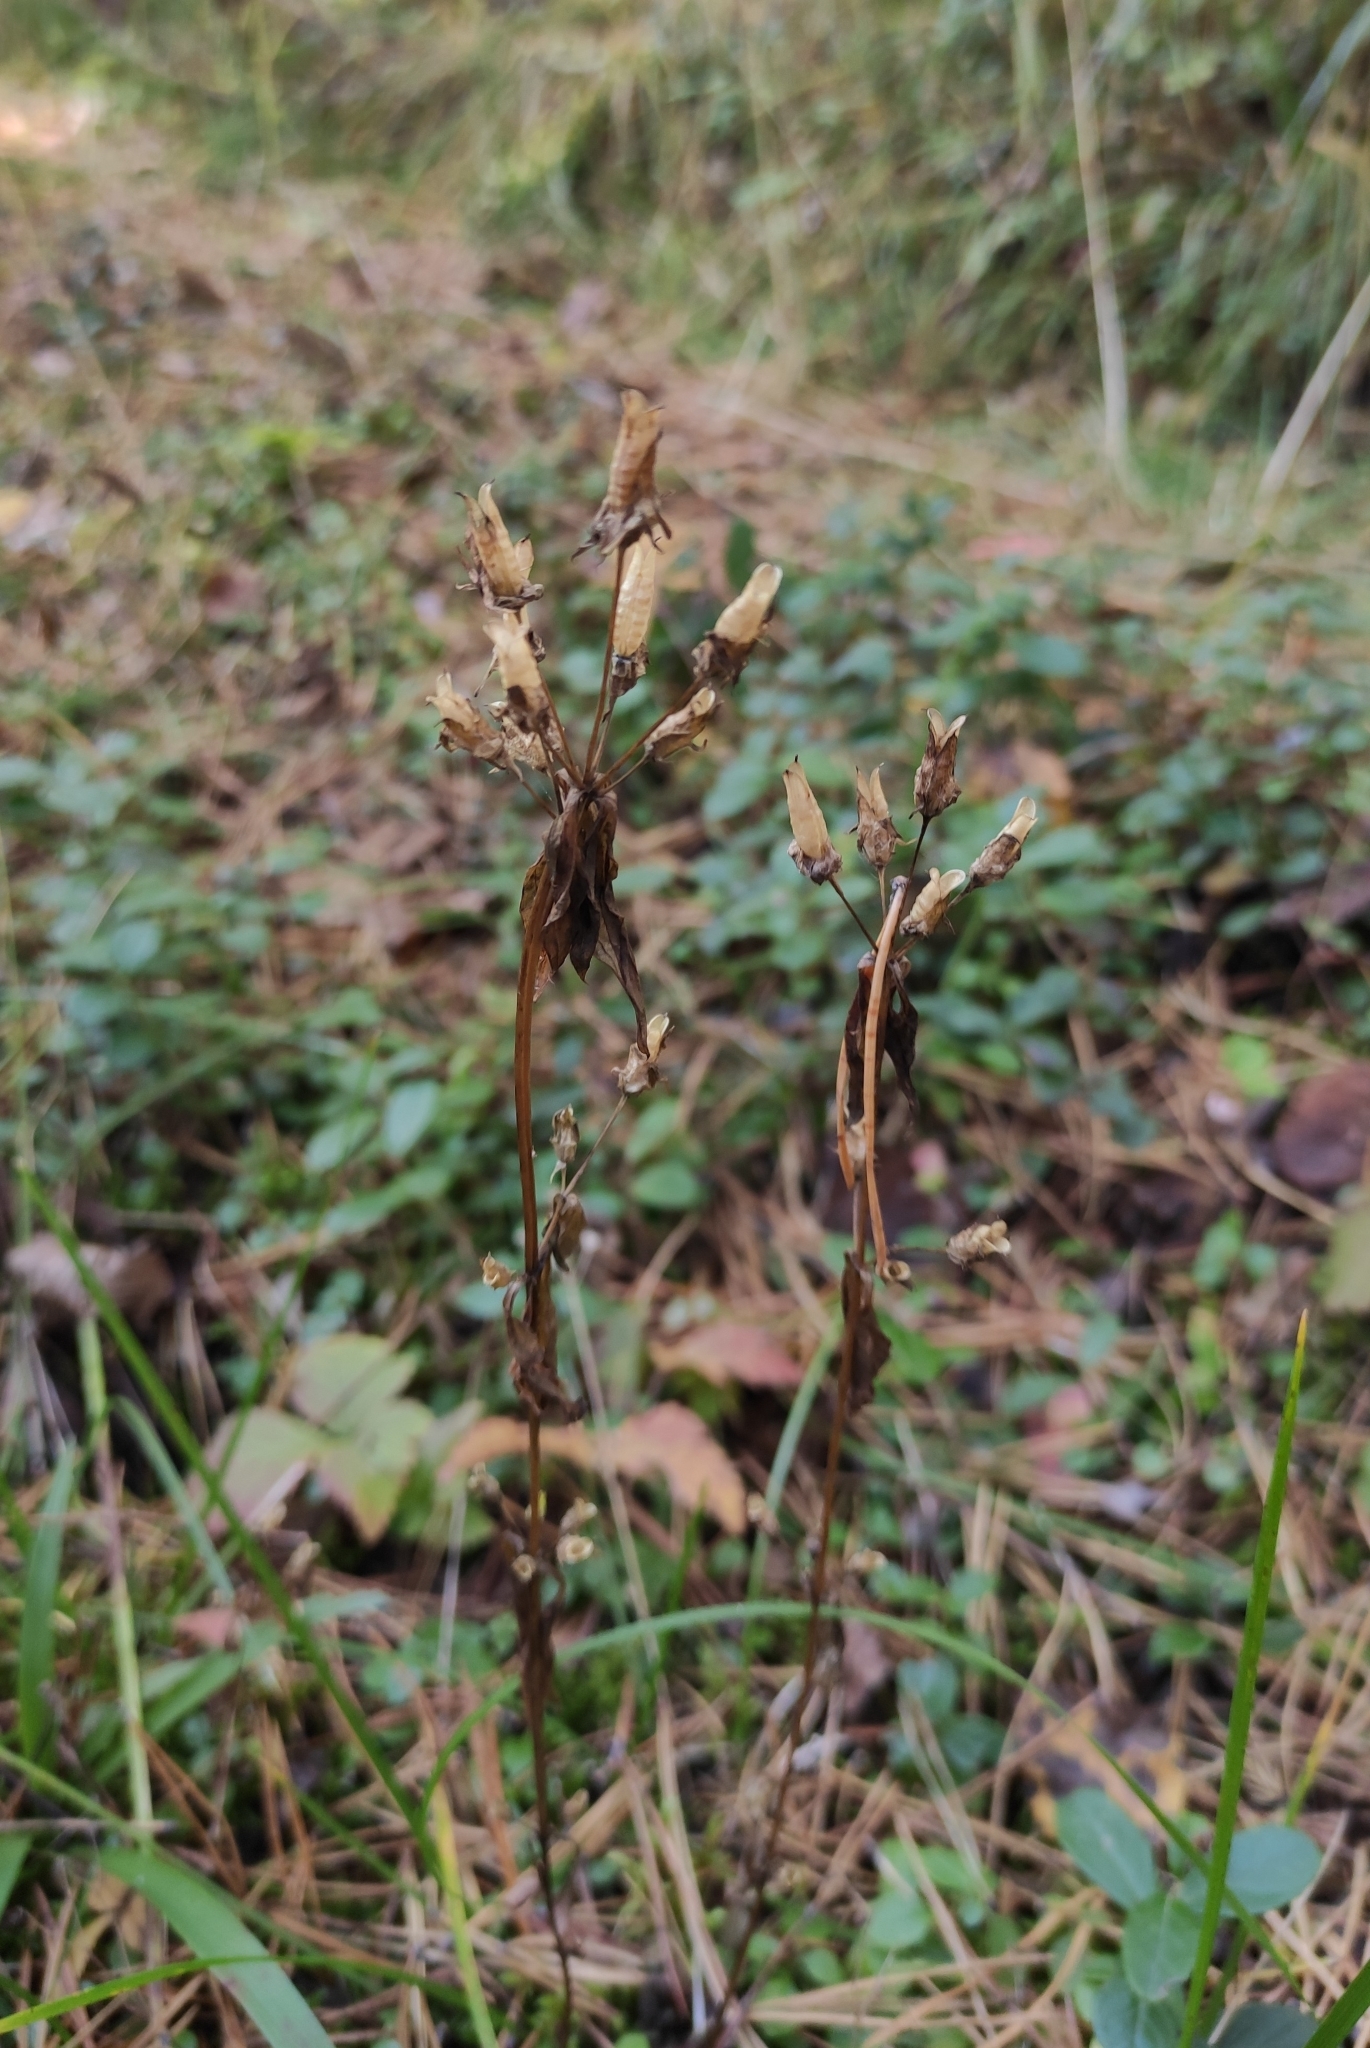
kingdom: Plantae
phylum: Tracheophyta
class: Magnoliopsida
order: Gentianales
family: Gentianaceae
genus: Halenia
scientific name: Halenia corniculata
